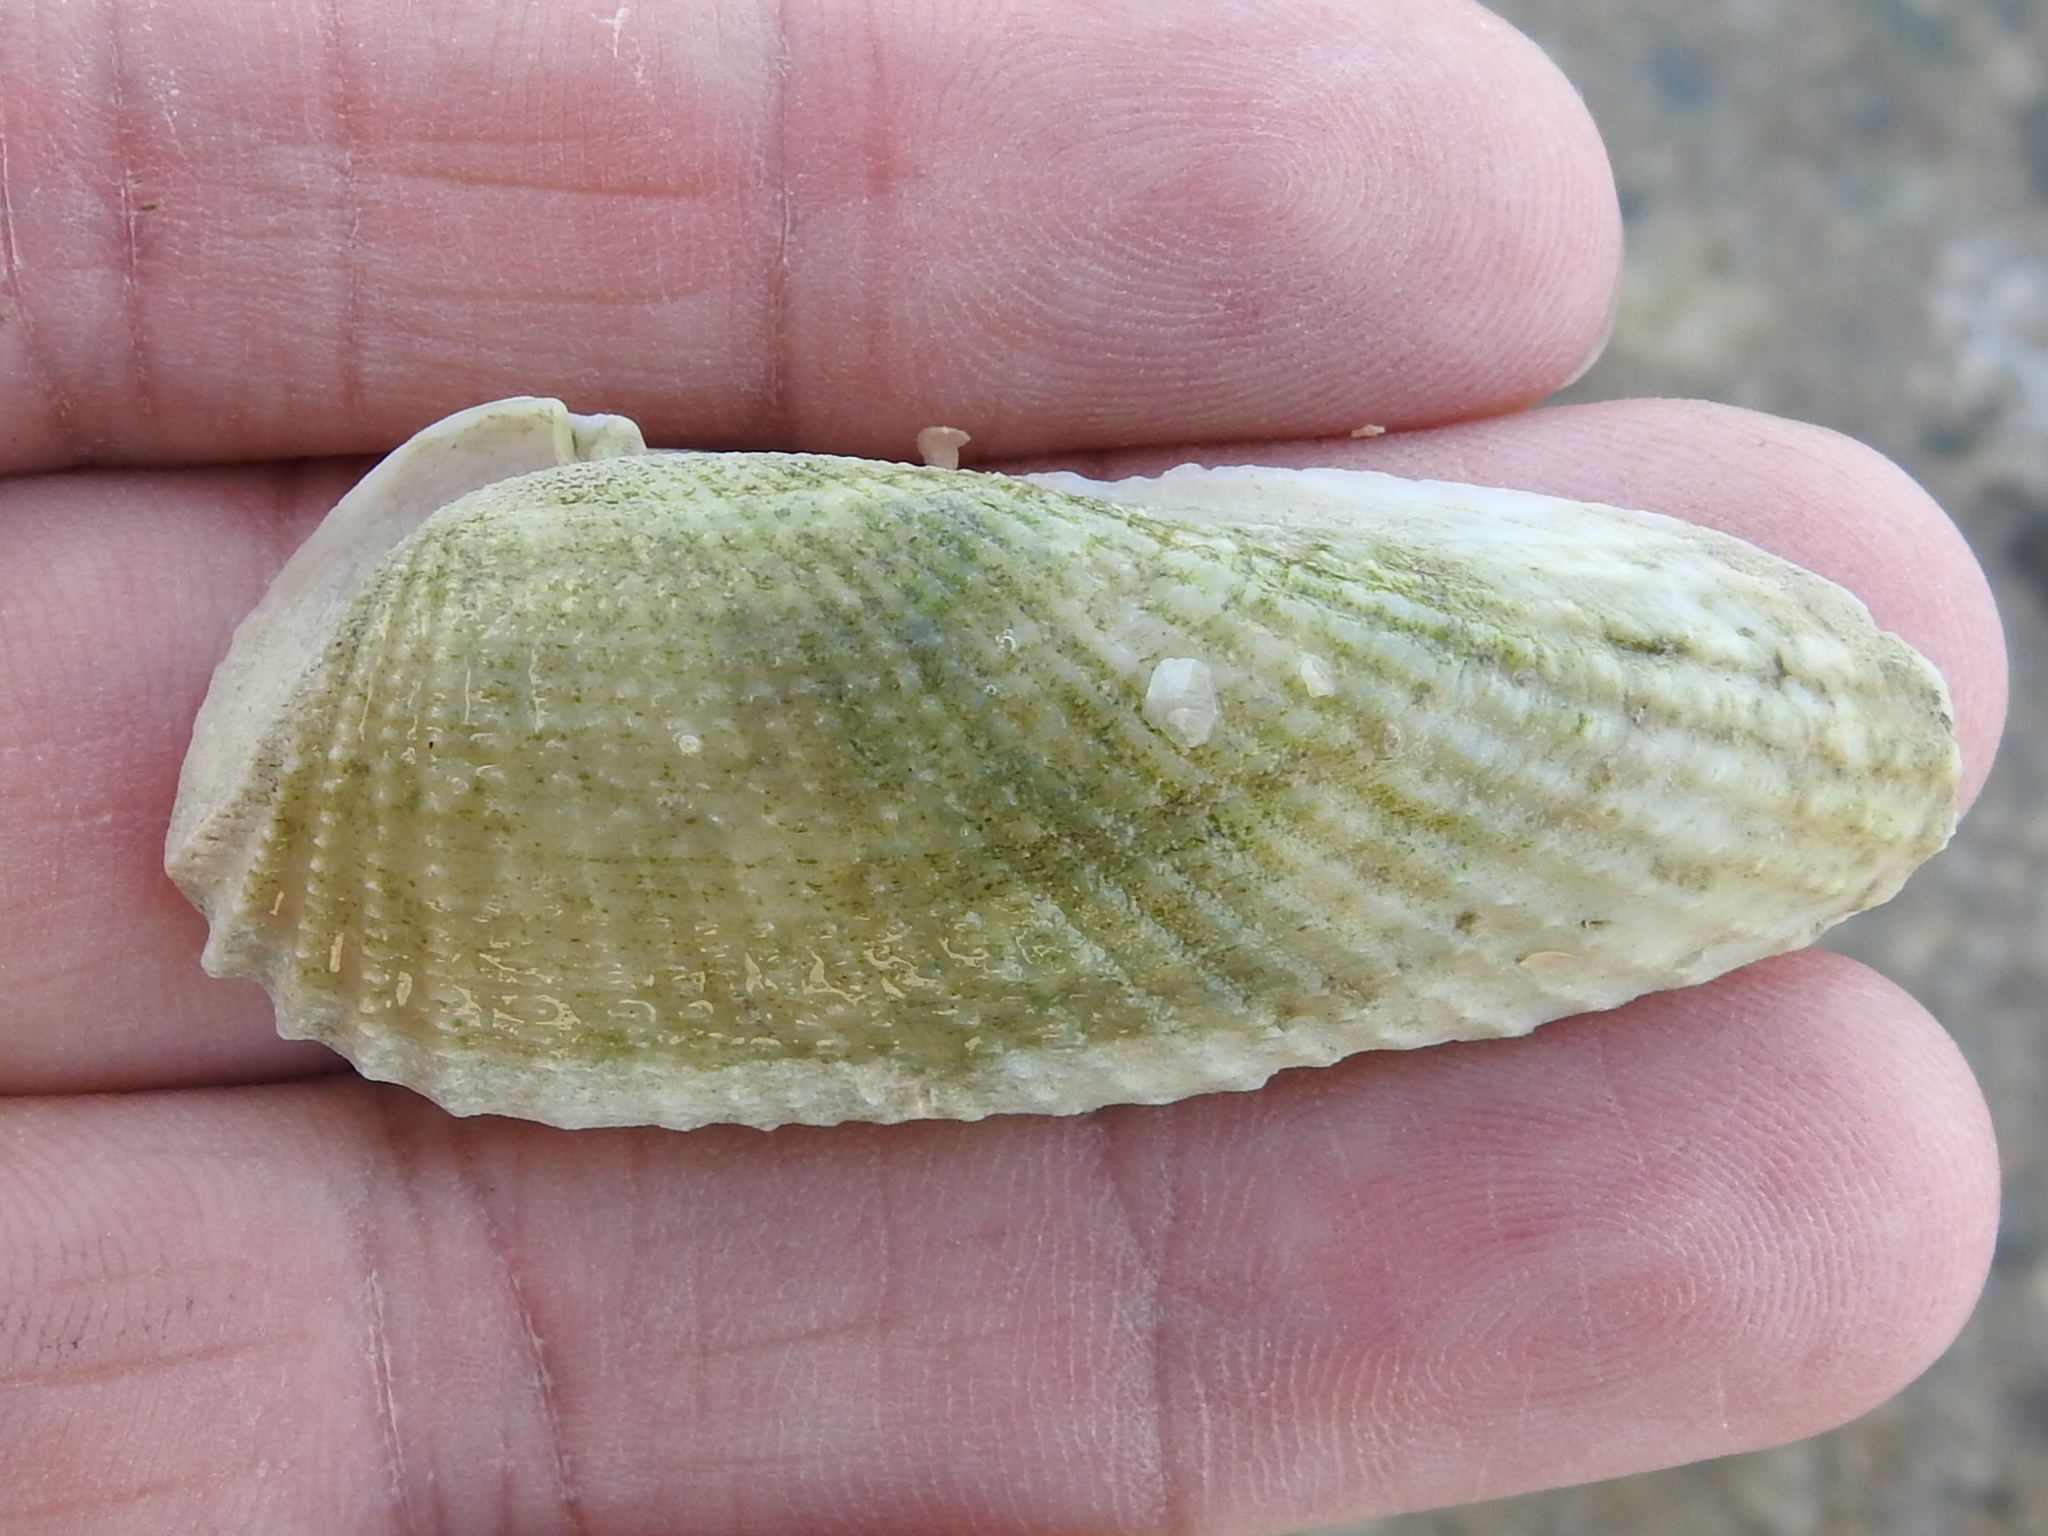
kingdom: Animalia
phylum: Mollusca
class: Bivalvia
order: Myida
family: Pholadidae
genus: Cyrtopleura
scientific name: Cyrtopleura costata
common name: Angel wing
